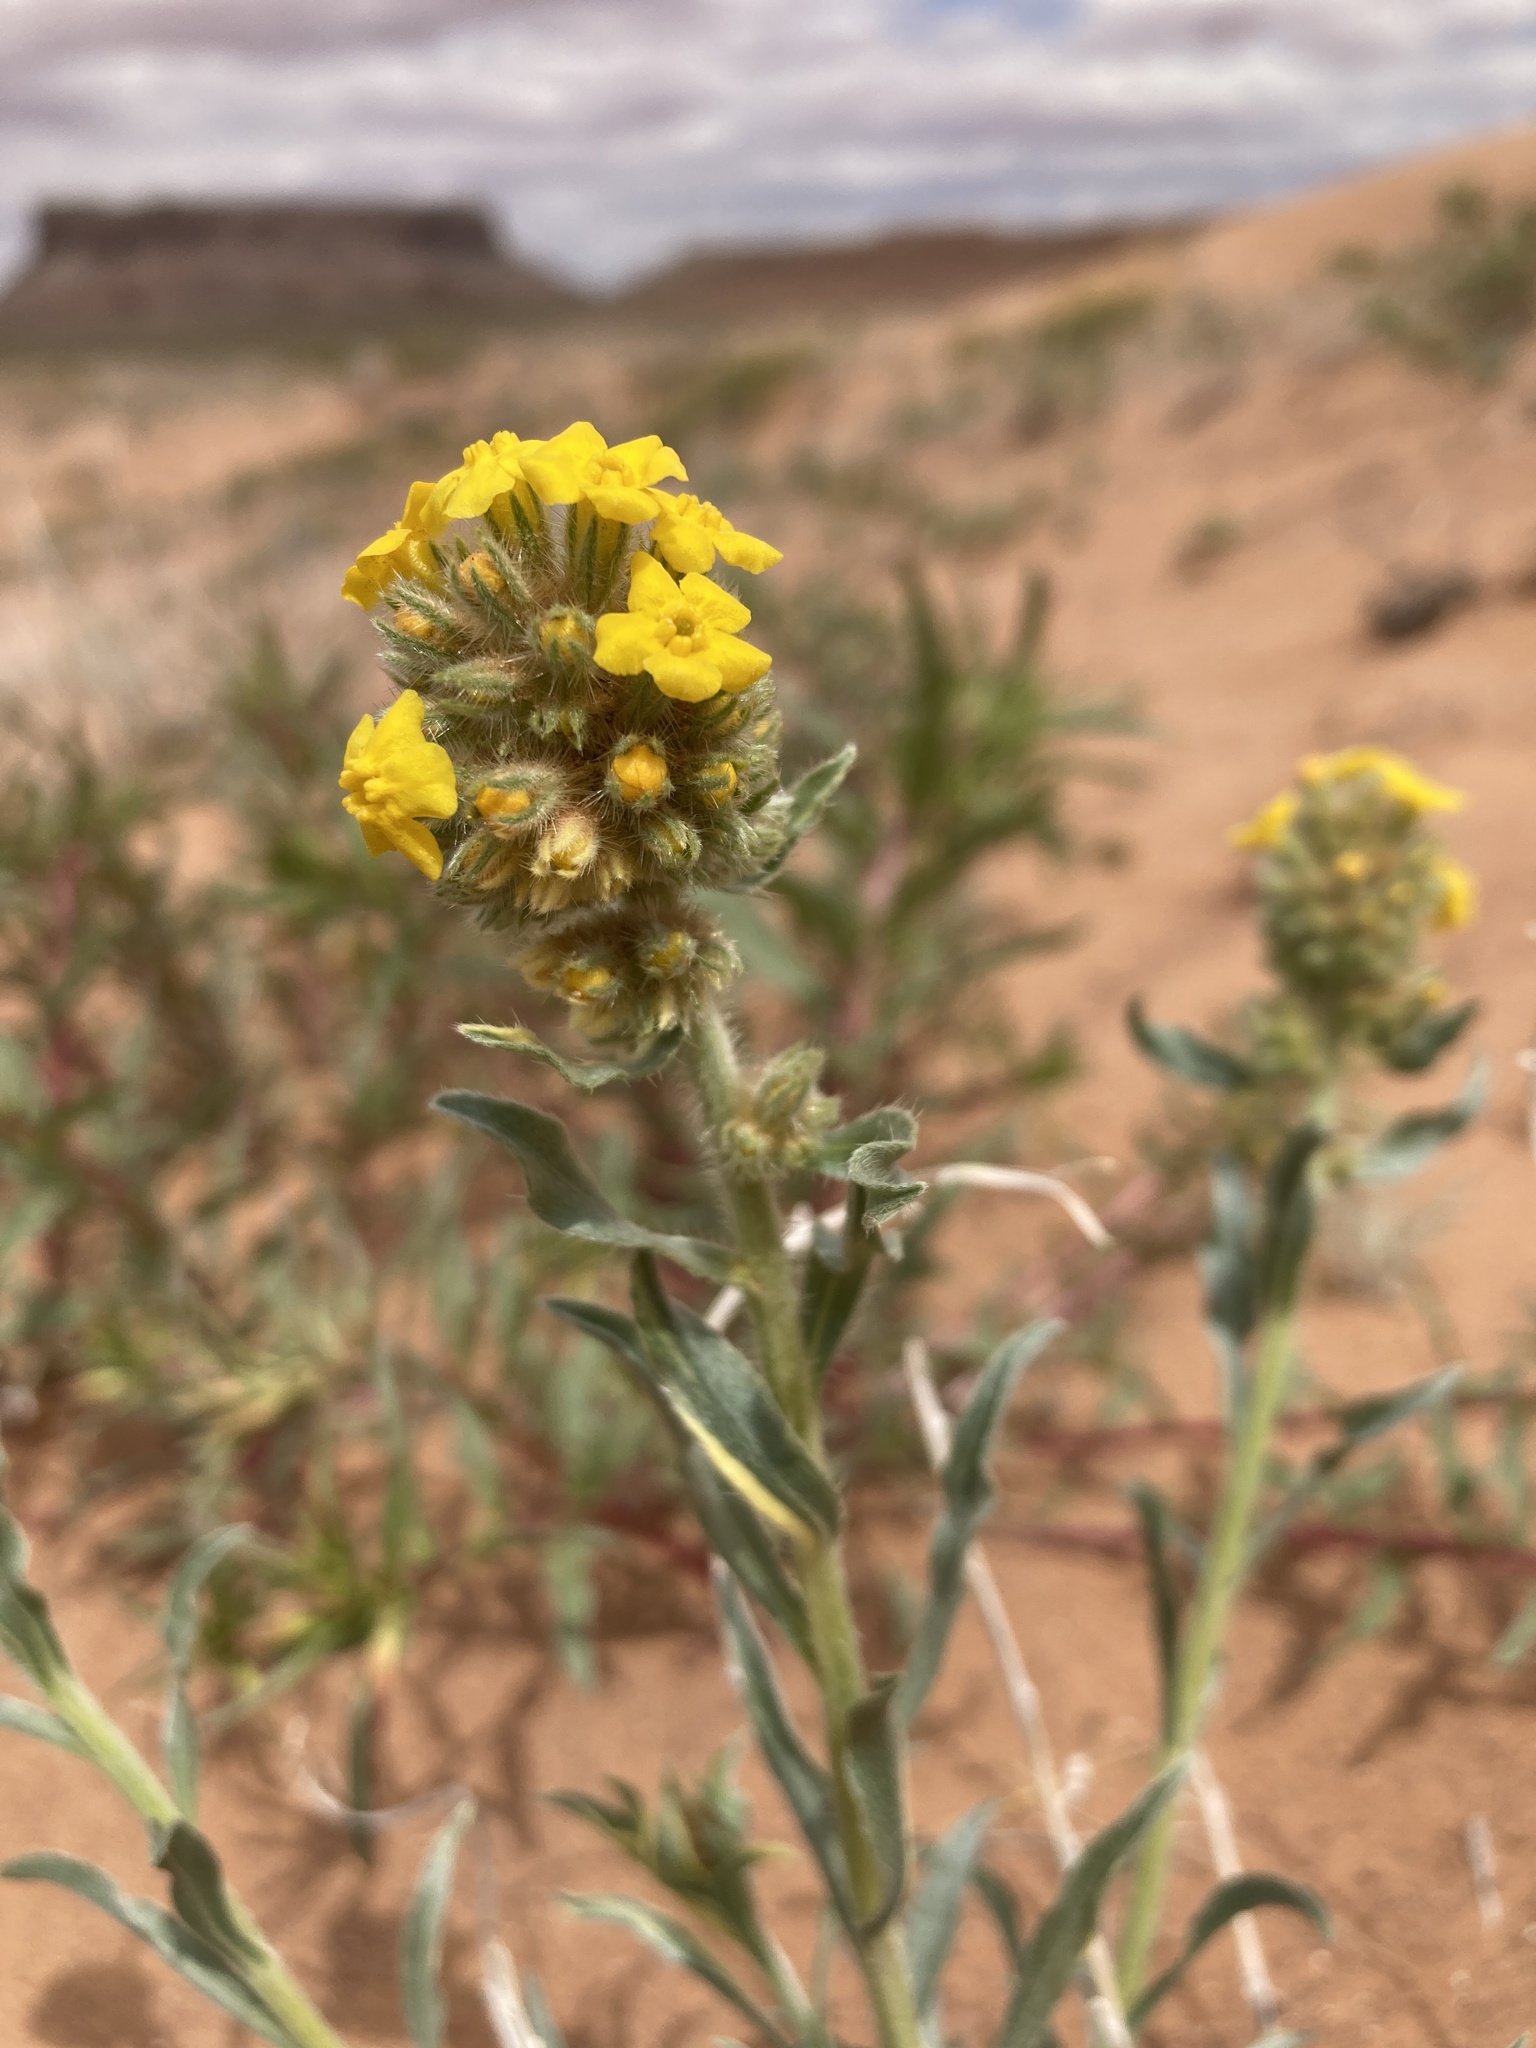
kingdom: Plantae
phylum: Tracheophyta
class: Magnoliopsida
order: Boraginales
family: Boraginaceae
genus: Oreocarya
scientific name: Oreocarya flava
